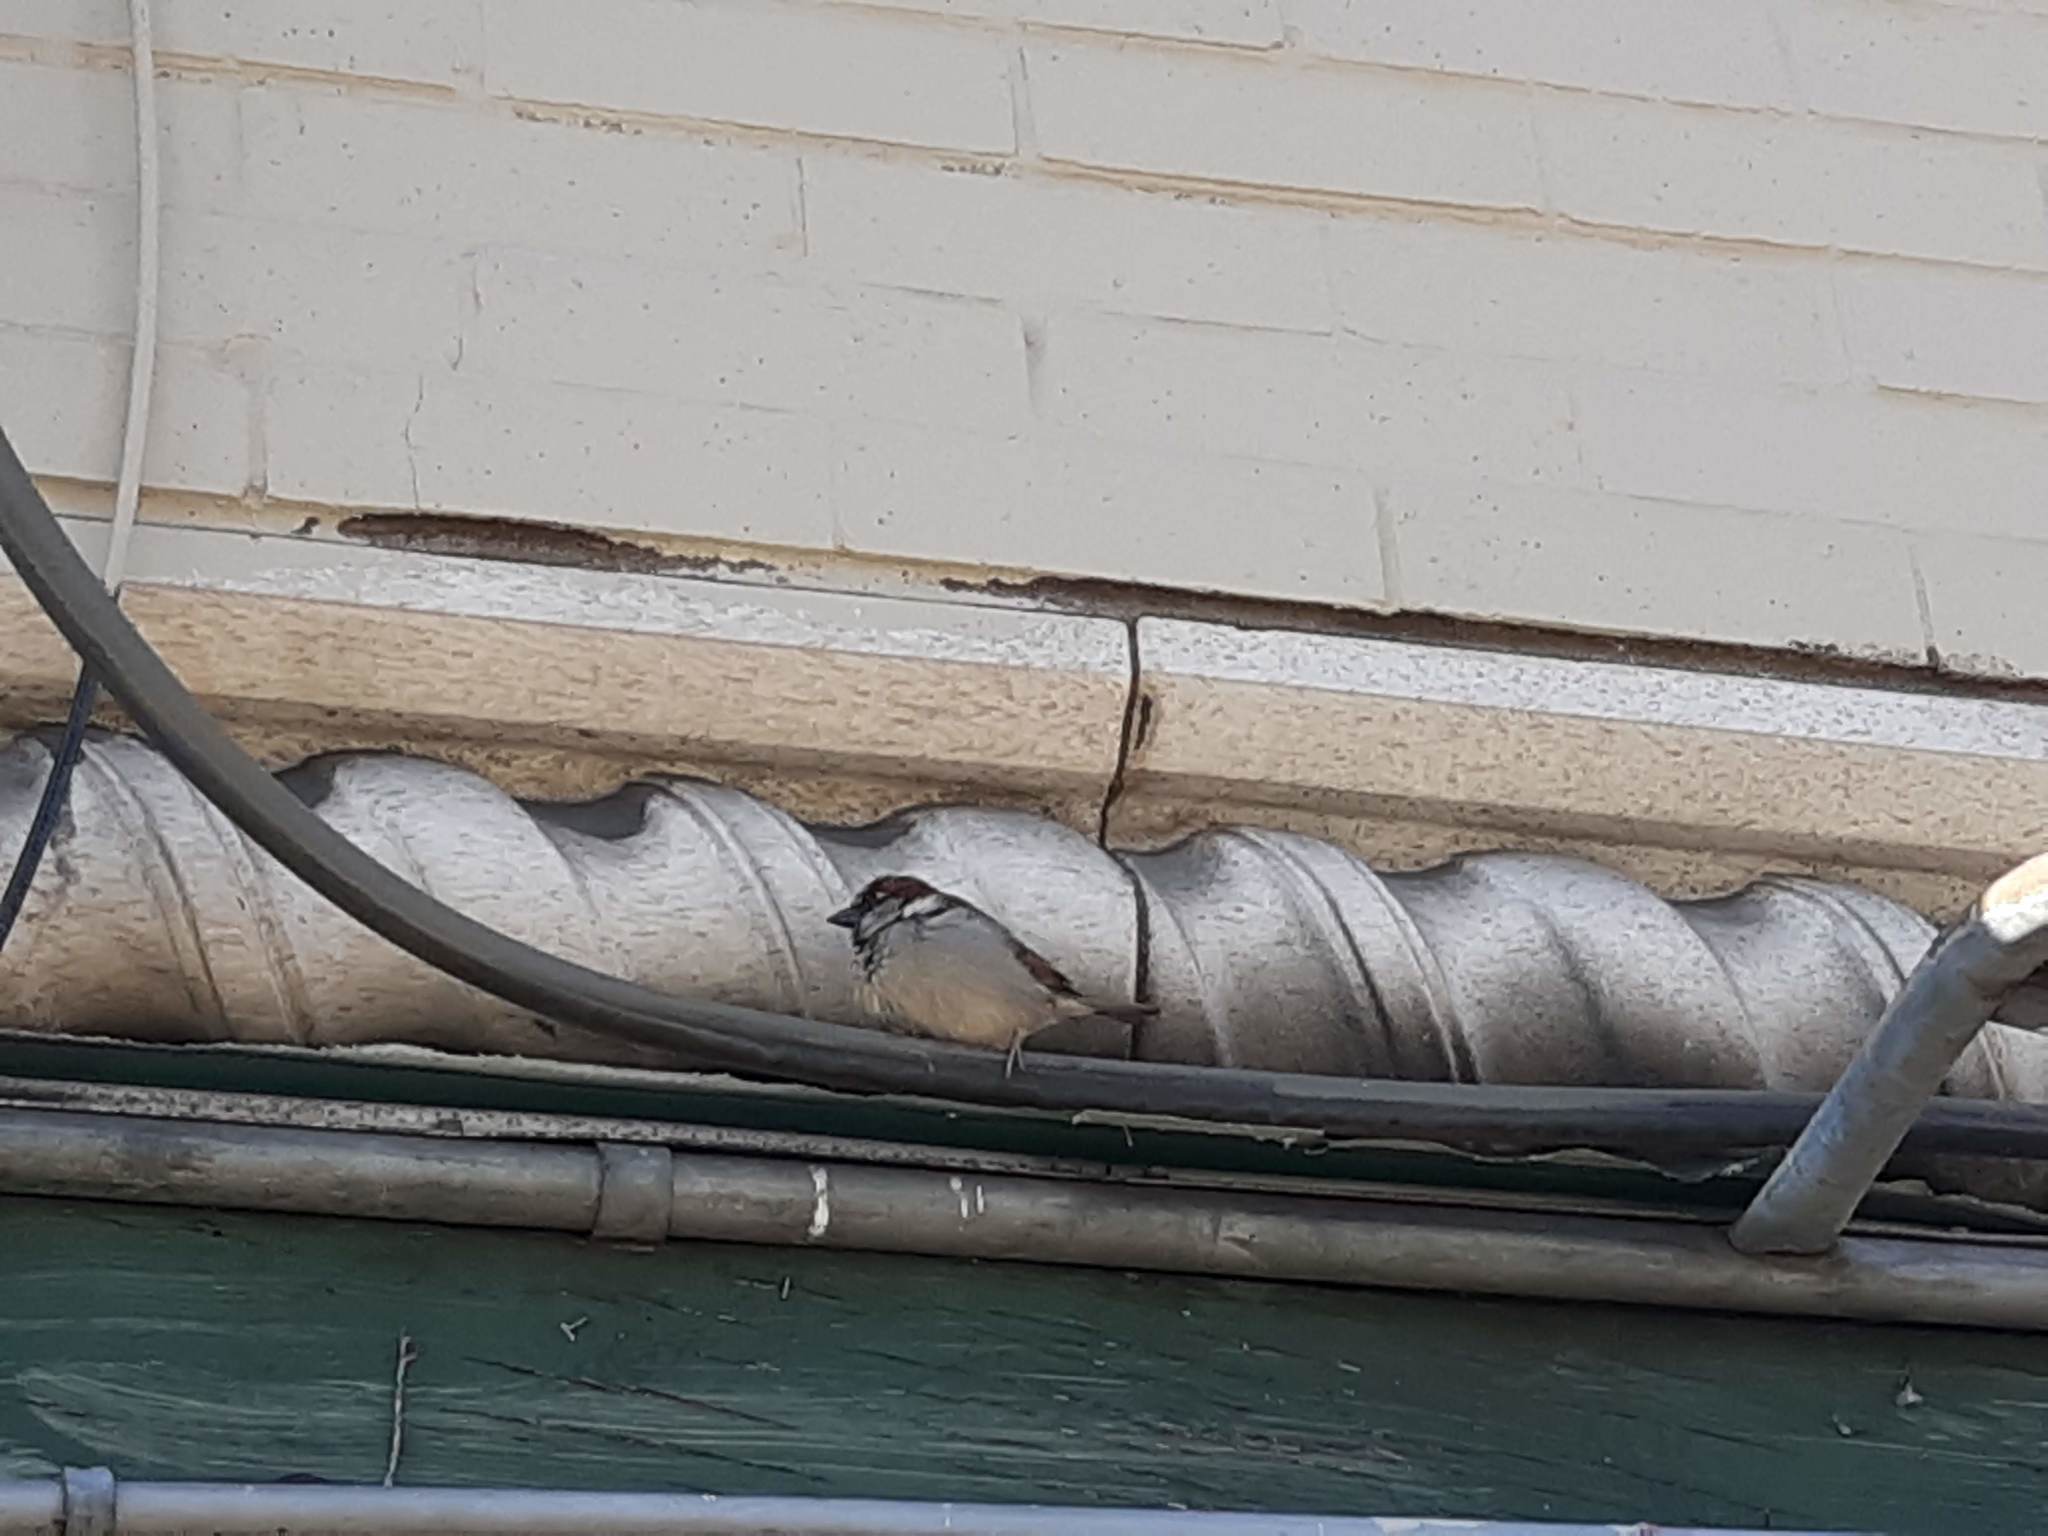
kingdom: Animalia
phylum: Chordata
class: Aves
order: Passeriformes
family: Passeridae
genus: Passer
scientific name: Passer domesticus
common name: House sparrow
